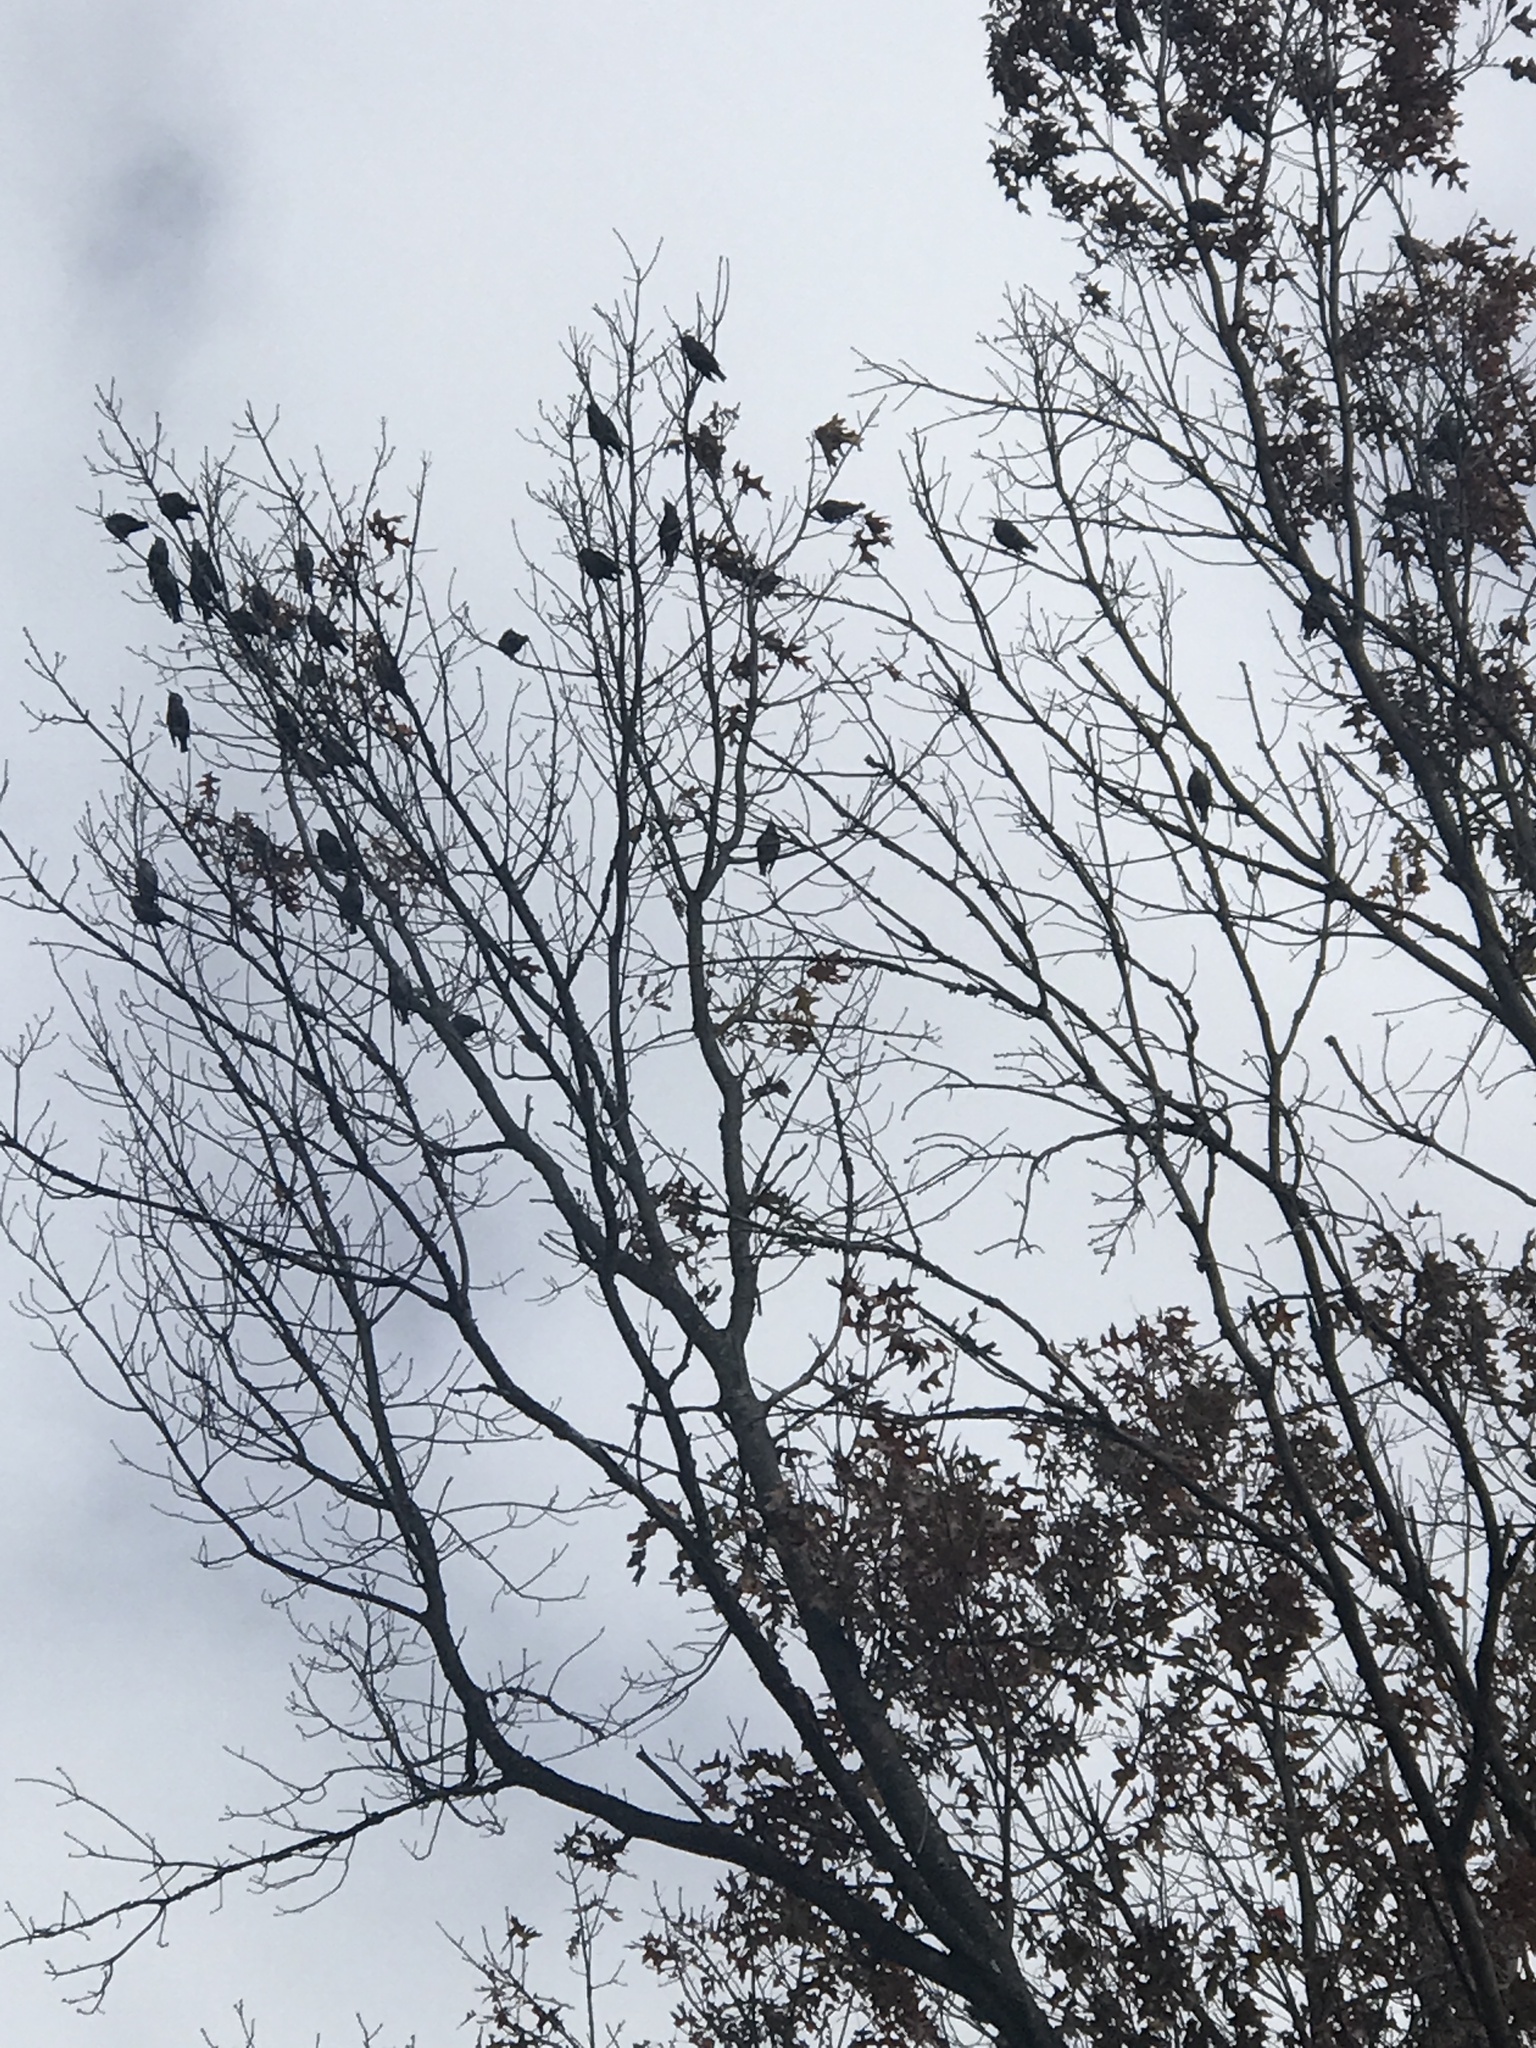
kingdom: Animalia
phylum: Chordata
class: Aves
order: Passeriformes
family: Sturnidae
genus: Sturnus
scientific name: Sturnus vulgaris
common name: Common starling
